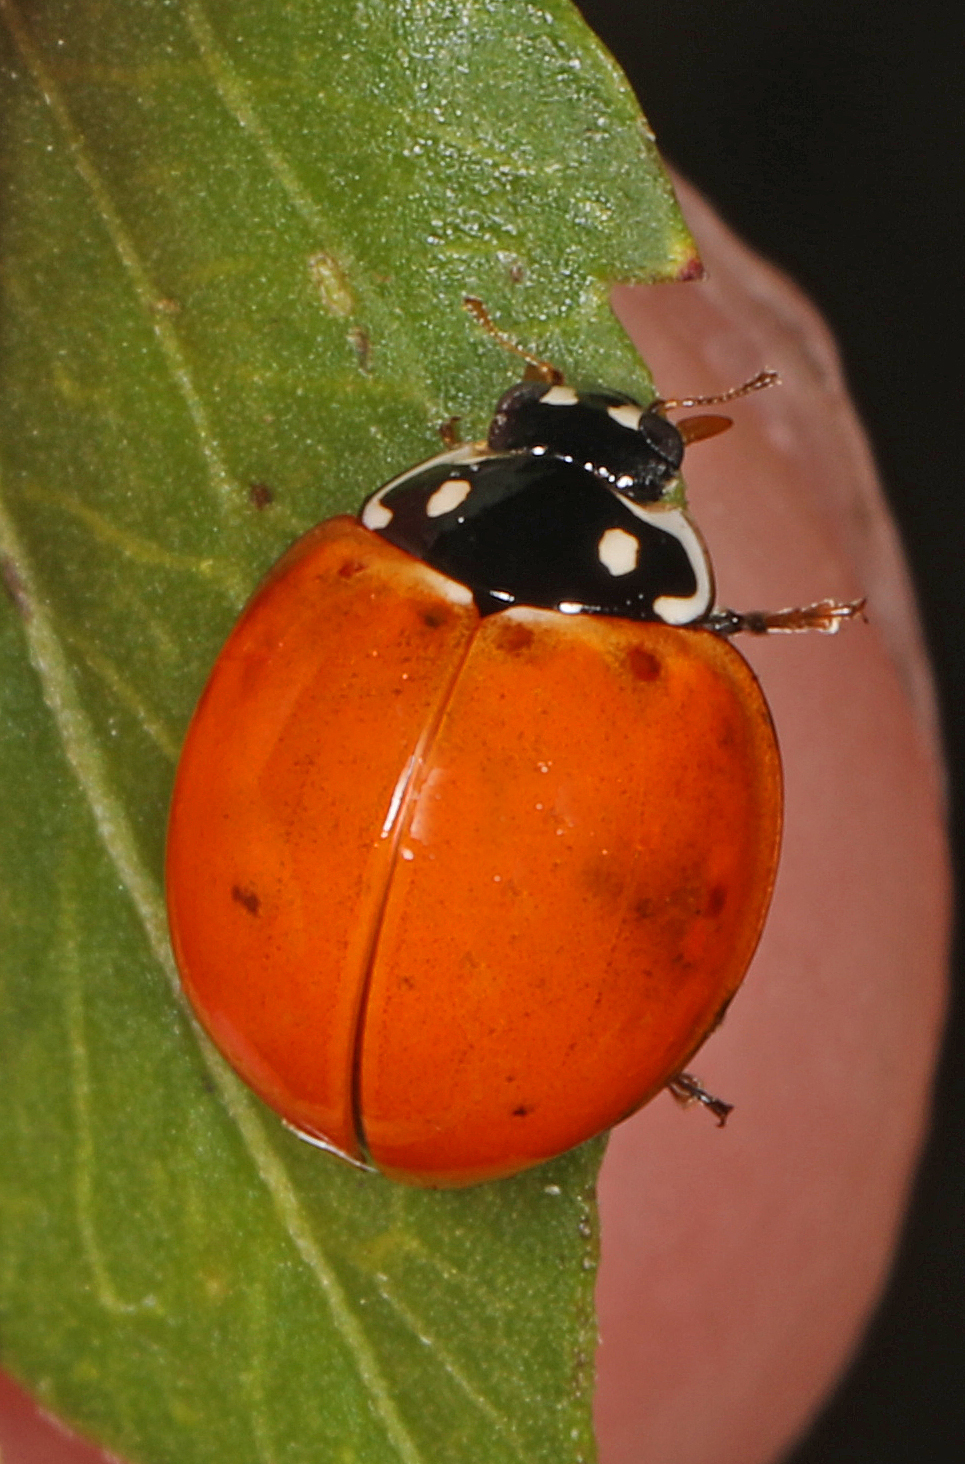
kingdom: Animalia
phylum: Arthropoda
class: Insecta
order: Coleoptera
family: Coccinellidae
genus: Cycloneda
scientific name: Cycloneda sanguinea
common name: Ladybird beetle
